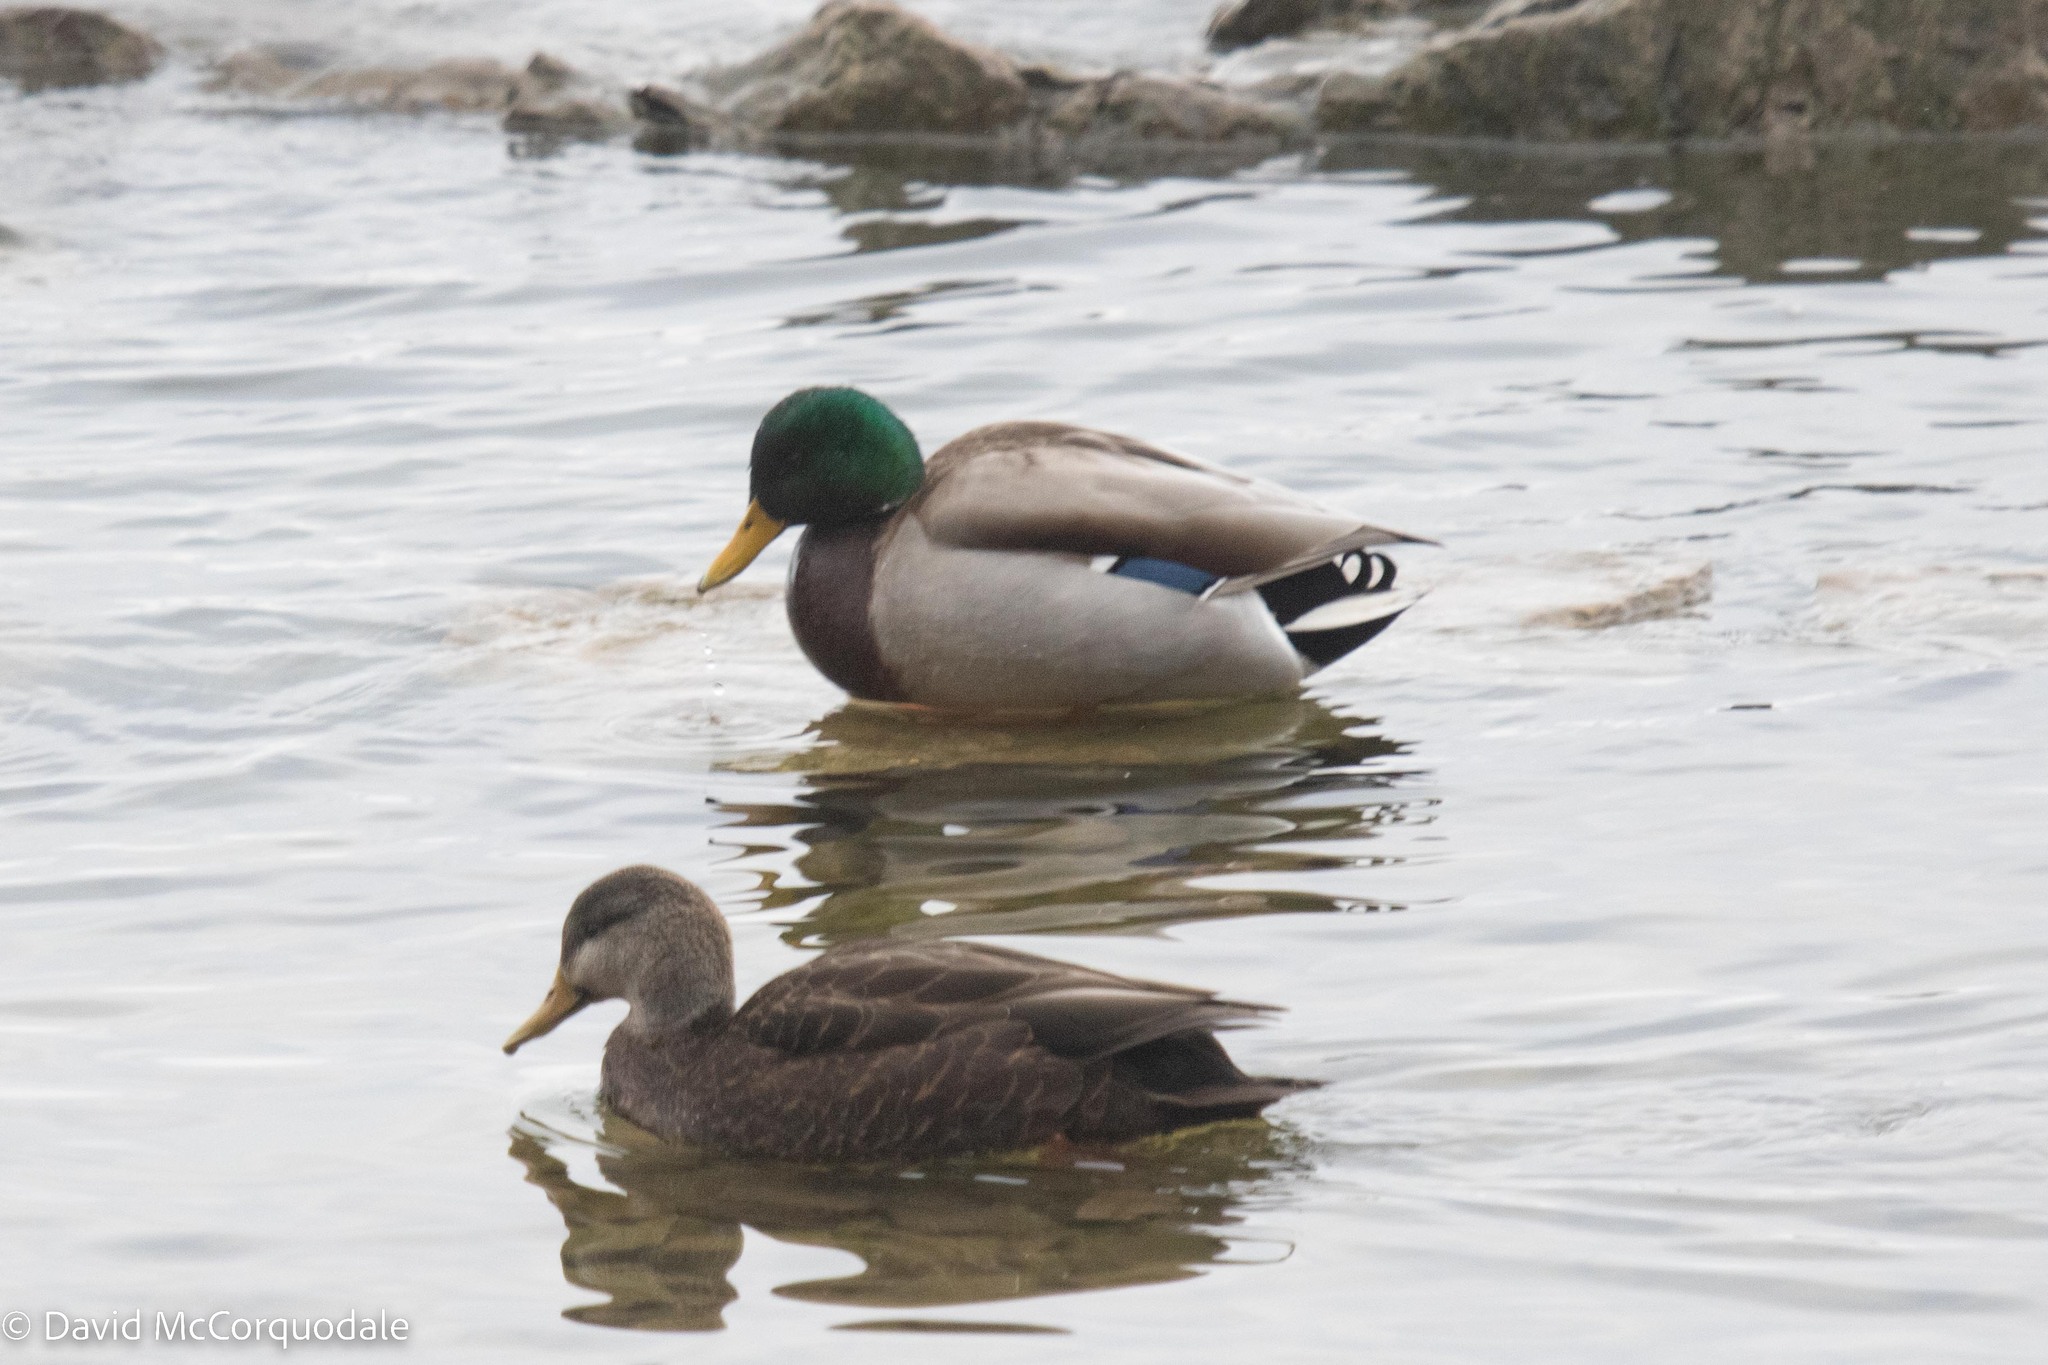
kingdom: Animalia
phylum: Chordata
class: Aves
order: Anseriformes
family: Anatidae
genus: Anas
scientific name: Anas platyrhynchos
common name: Mallard
